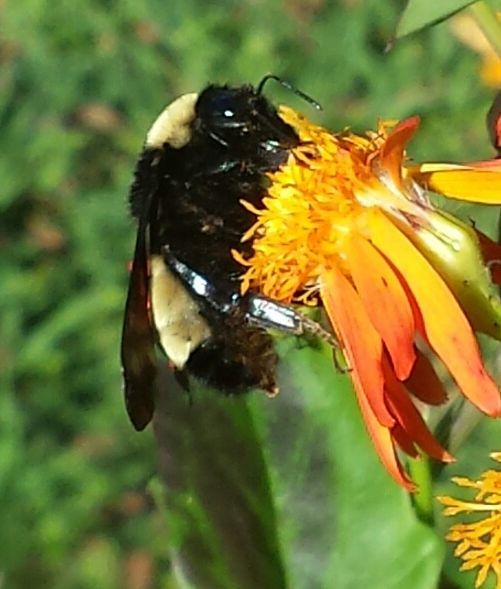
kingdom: Animalia
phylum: Arthropoda
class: Insecta
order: Hymenoptera
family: Apidae
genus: Bombus
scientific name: Bombus pensylvanicus
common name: Bumble bee
